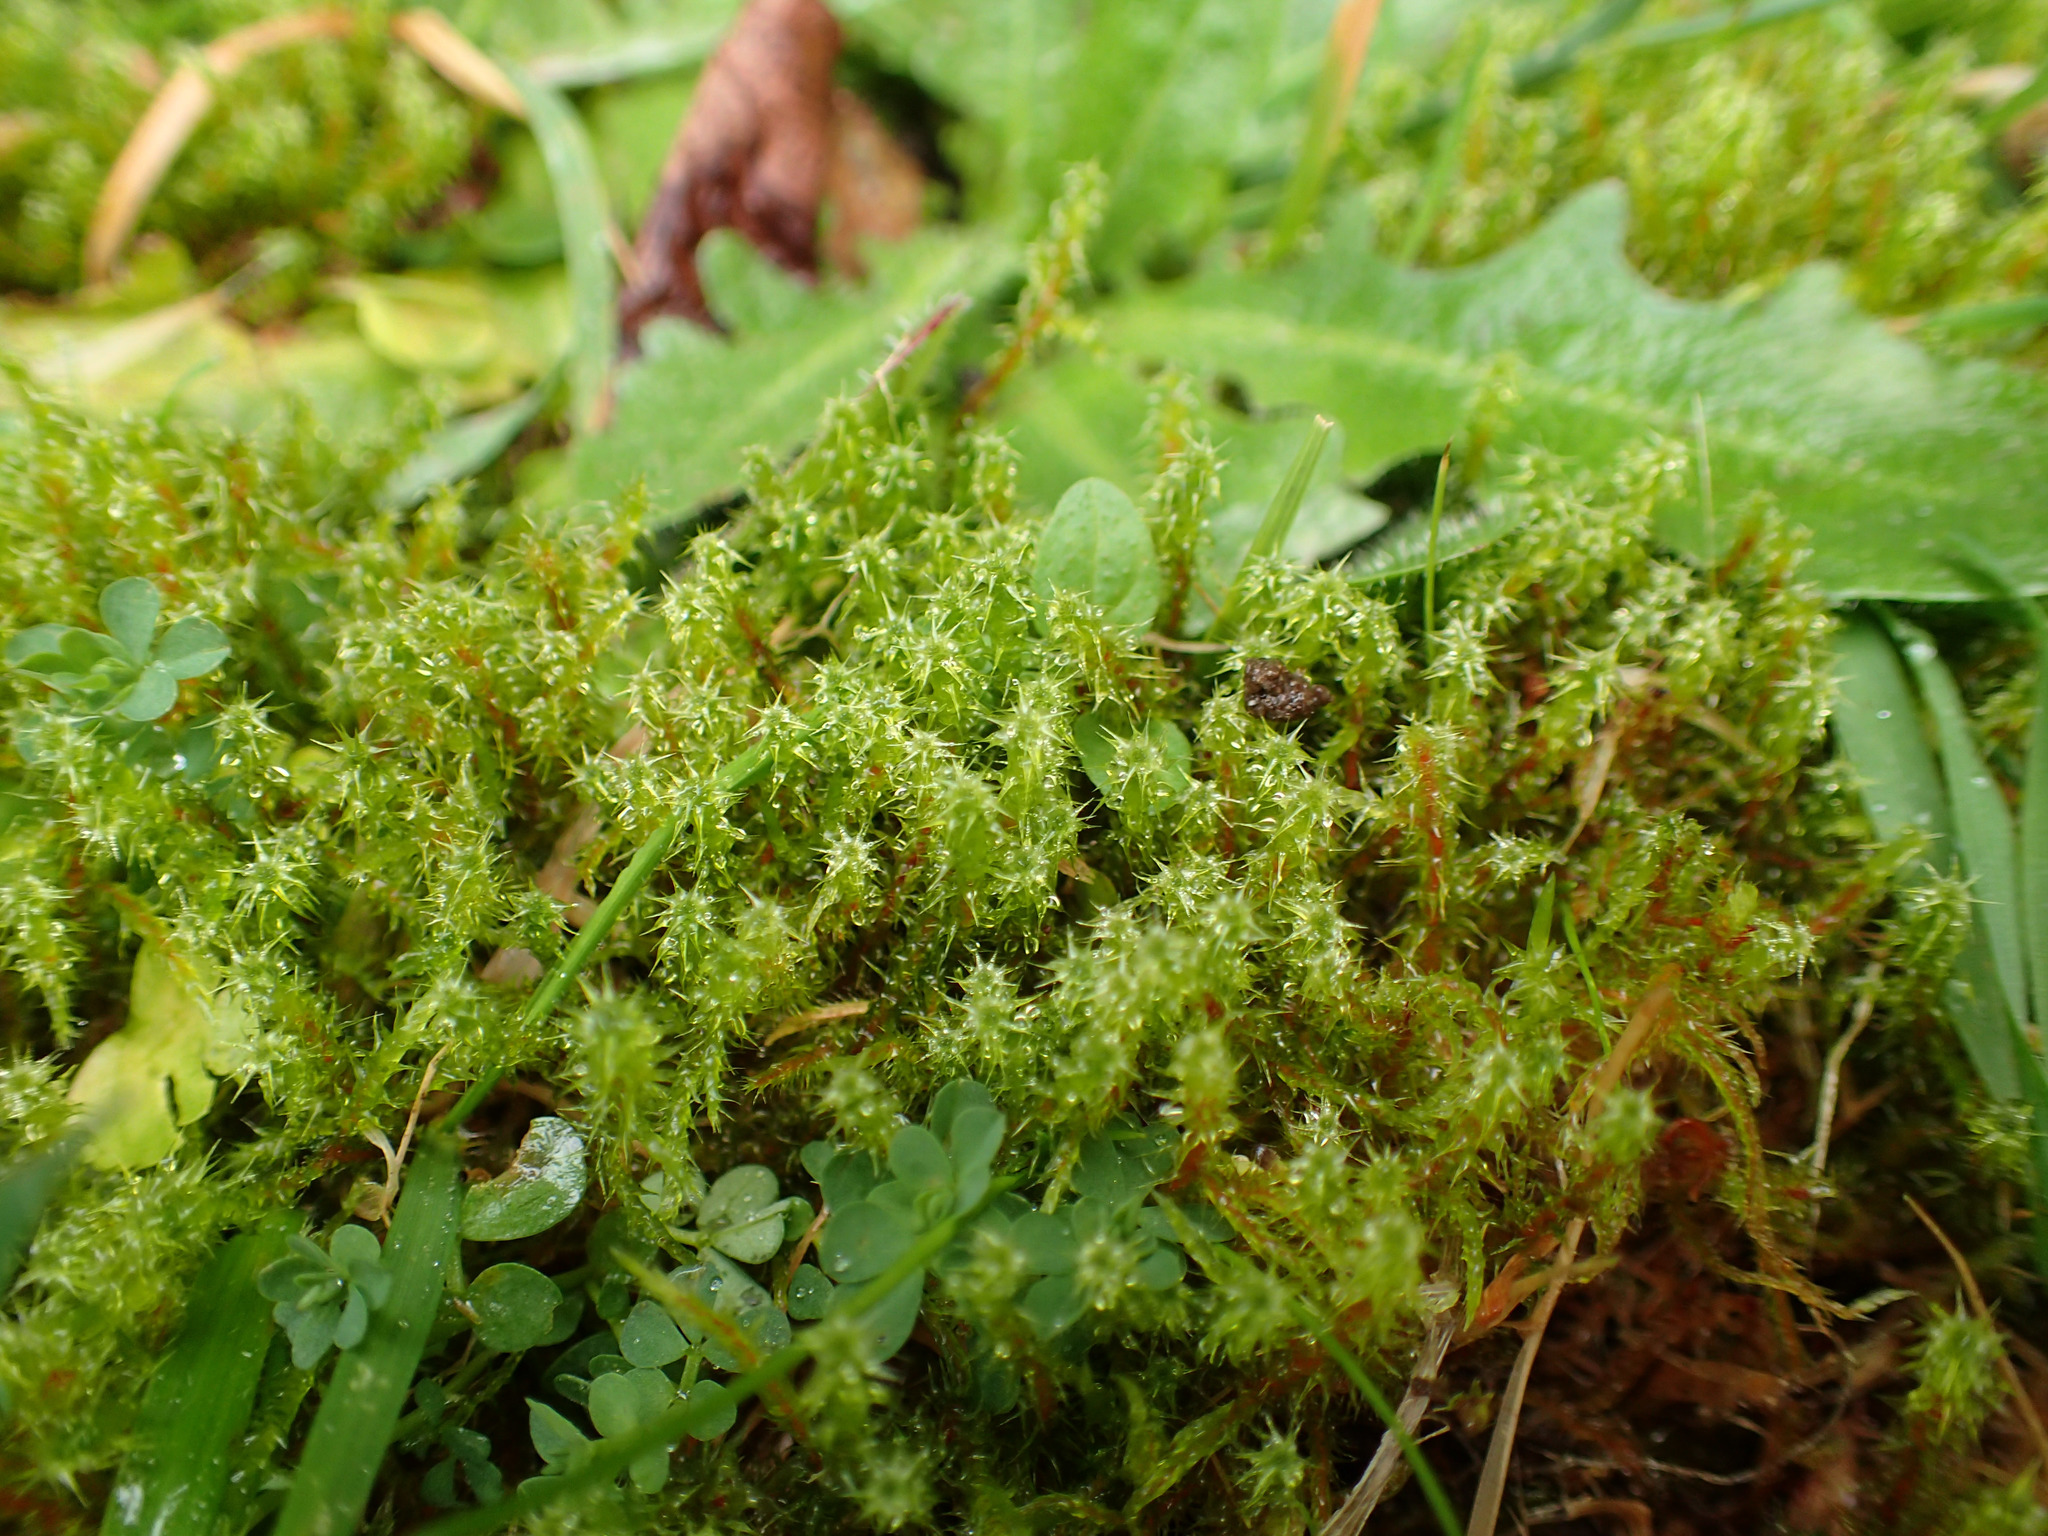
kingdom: Plantae
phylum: Bryophyta
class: Bryopsida
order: Hypnales
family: Hylocomiaceae
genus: Rhytidiadelphus
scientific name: Rhytidiadelphus squarrosus
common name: Springy turf-moss
